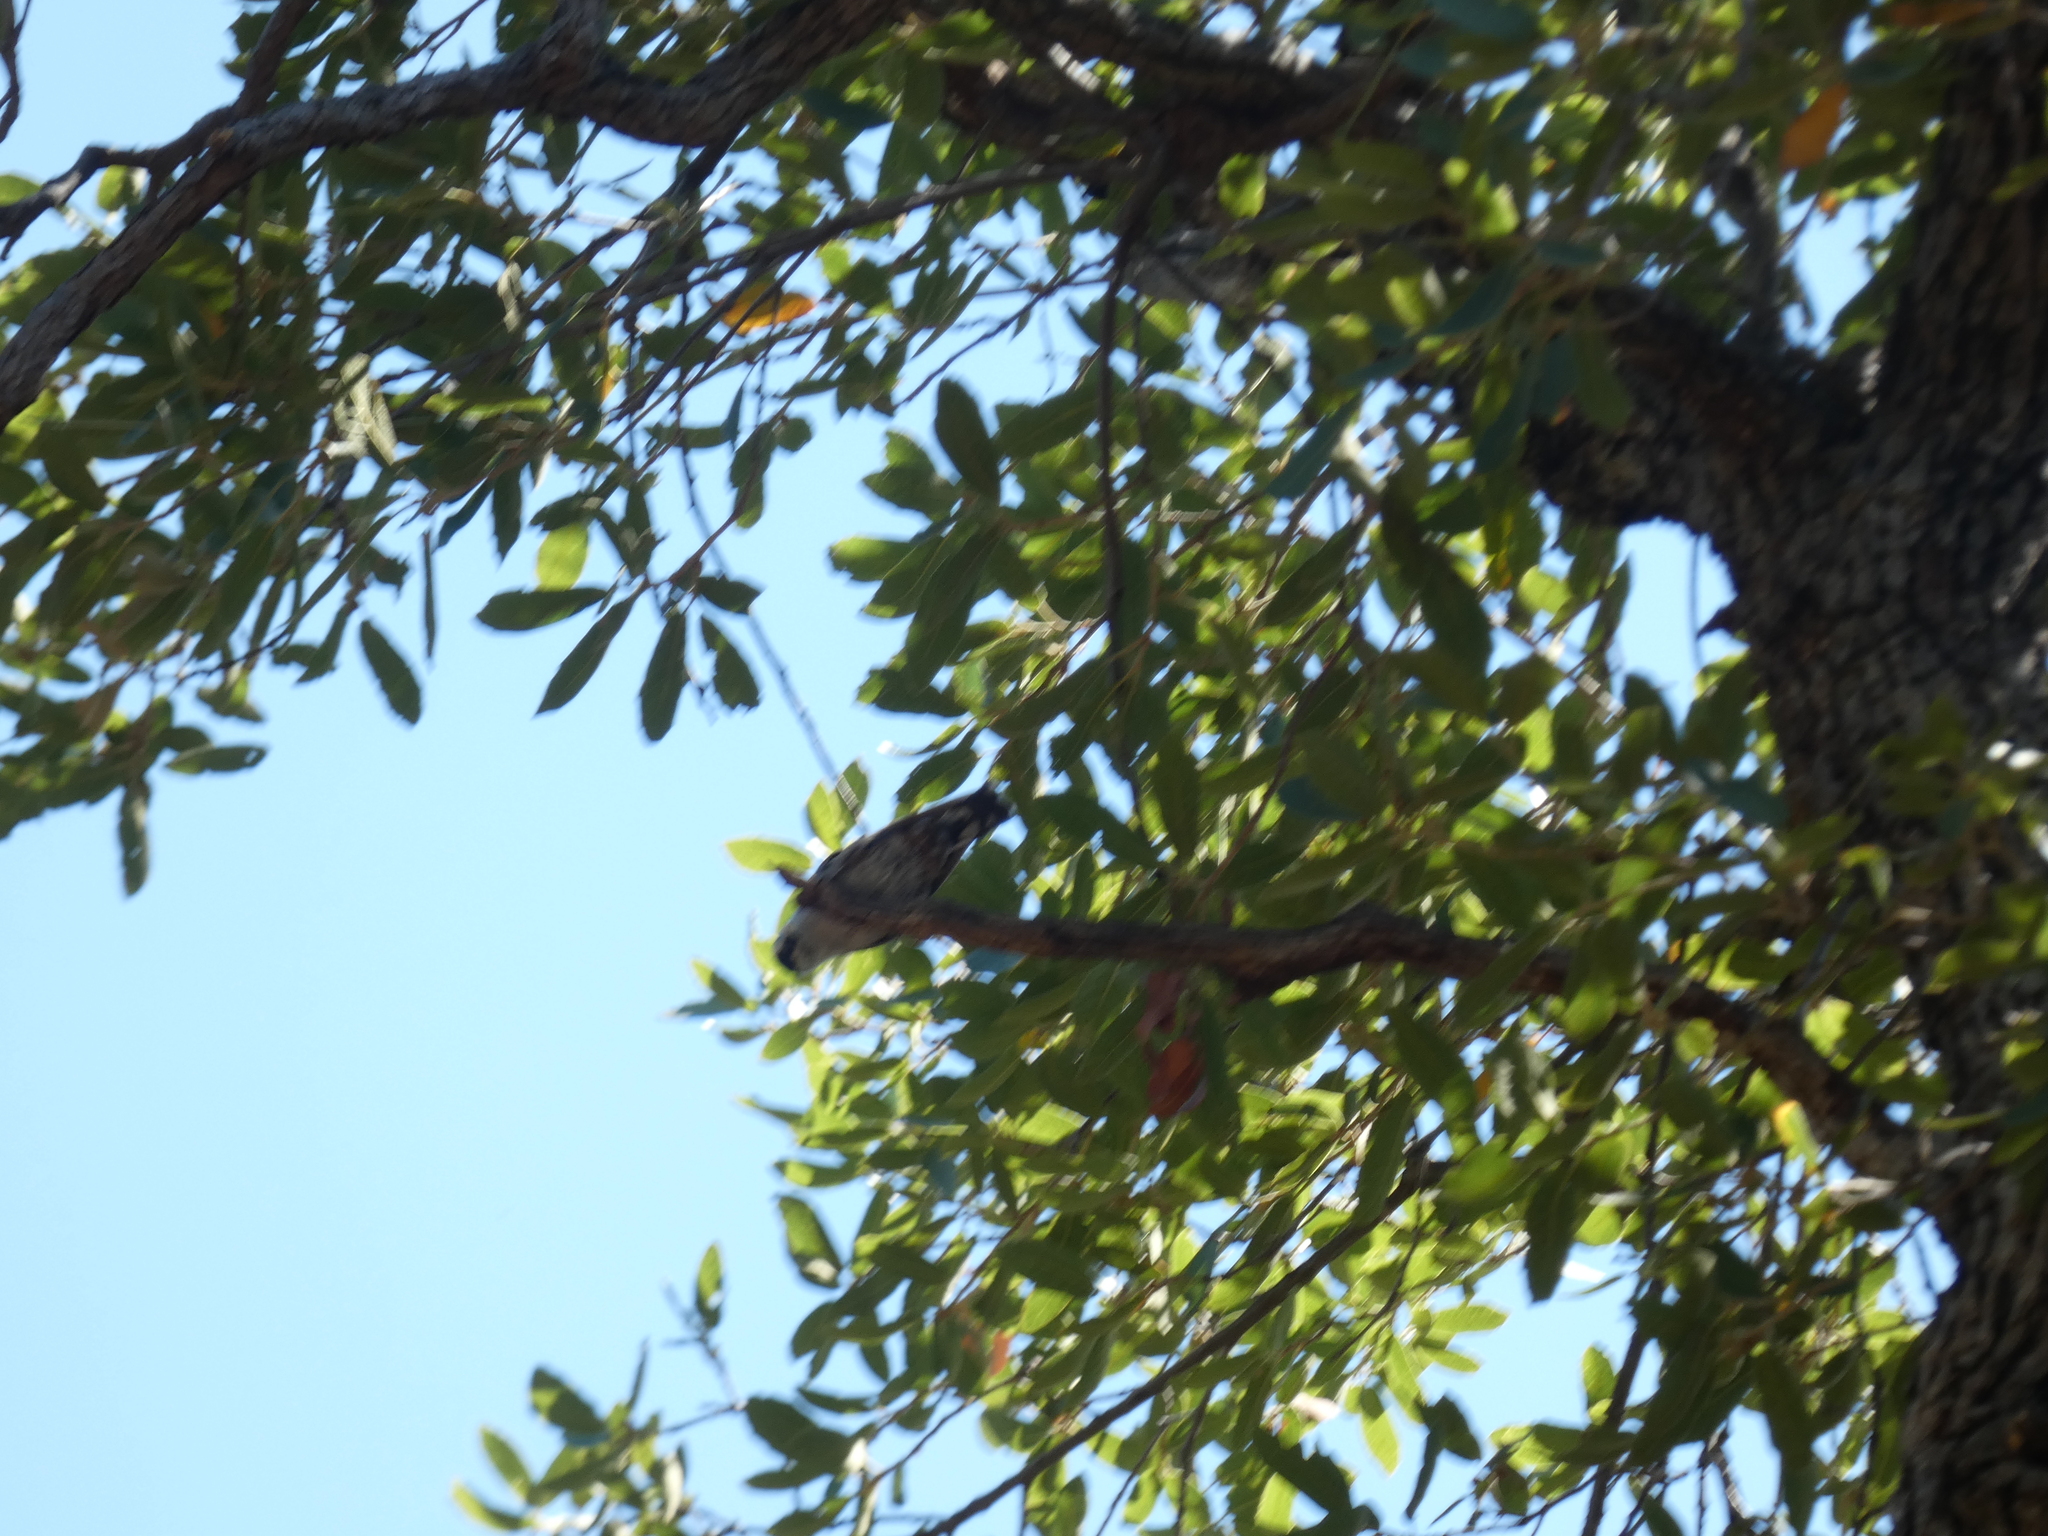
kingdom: Animalia
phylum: Chordata
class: Aves
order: Passeriformes
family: Sittidae
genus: Sitta
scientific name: Sitta carolinensis
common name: White-breasted nuthatch
